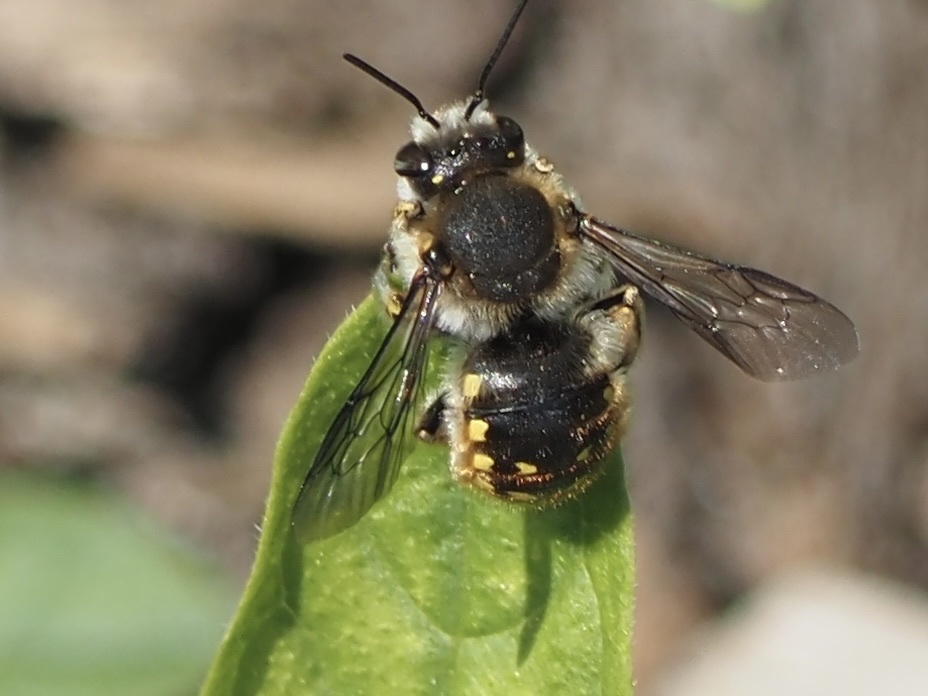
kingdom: Animalia
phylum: Arthropoda
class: Insecta
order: Hymenoptera
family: Megachilidae
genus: Anthidium
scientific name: Anthidium manicatum
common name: Wool carder bee
